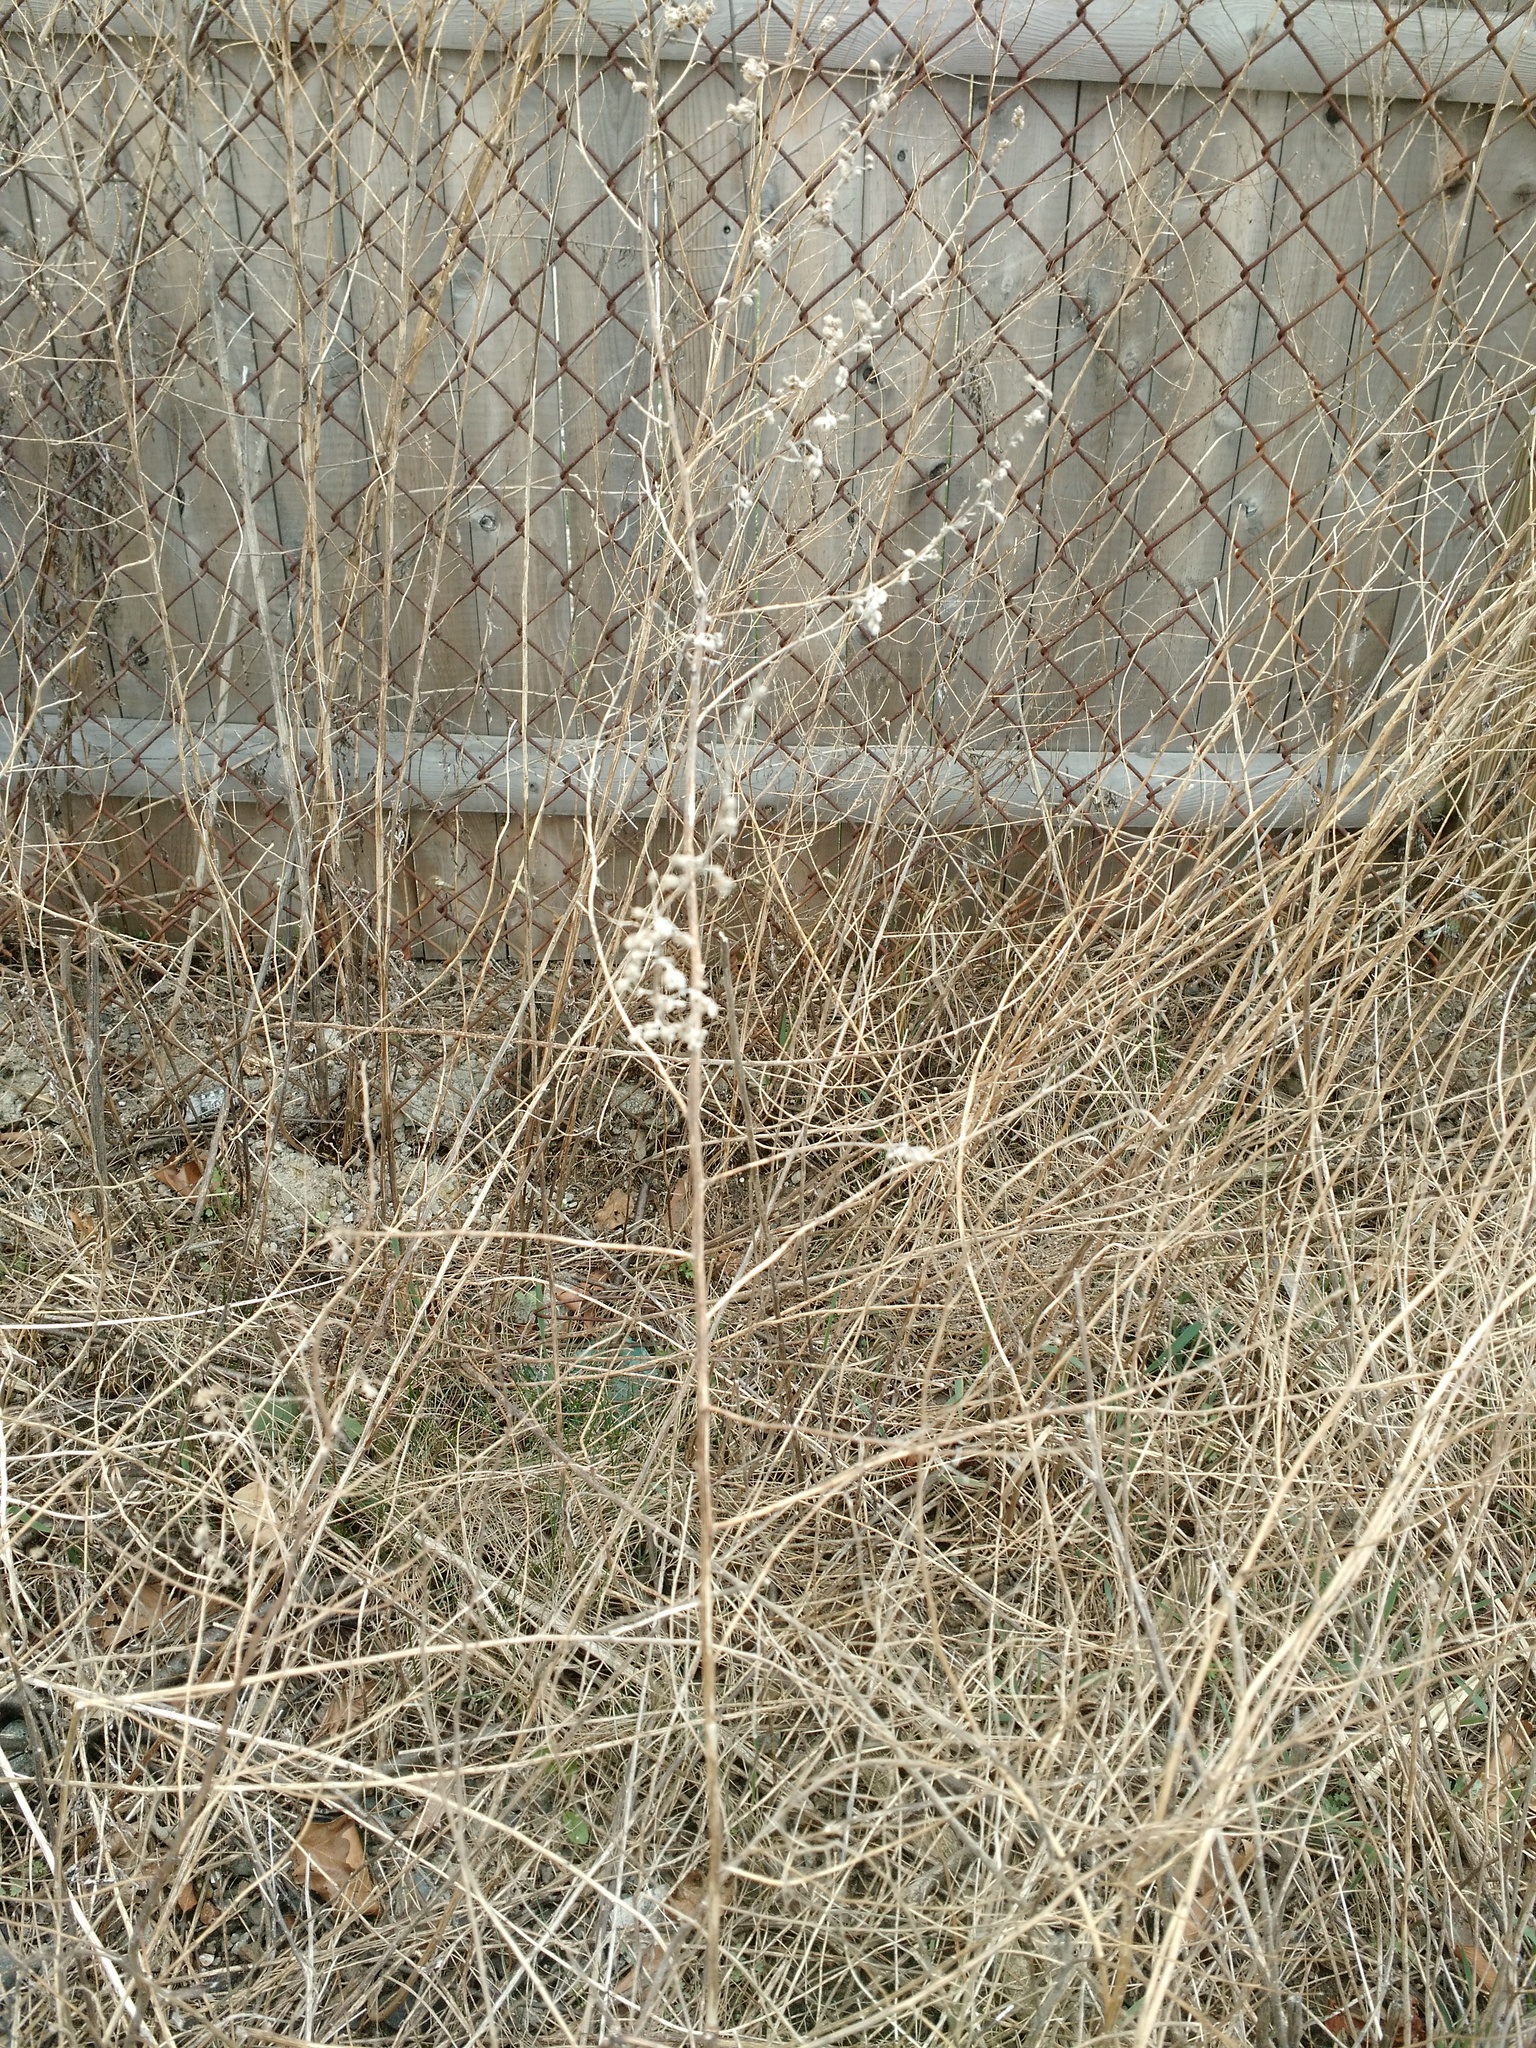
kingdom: Plantae
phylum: Tracheophyta
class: Magnoliopsida
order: Asterales
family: Asteraceae
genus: Artemisia
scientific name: Artemisia vulgaris
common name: Mugwort
